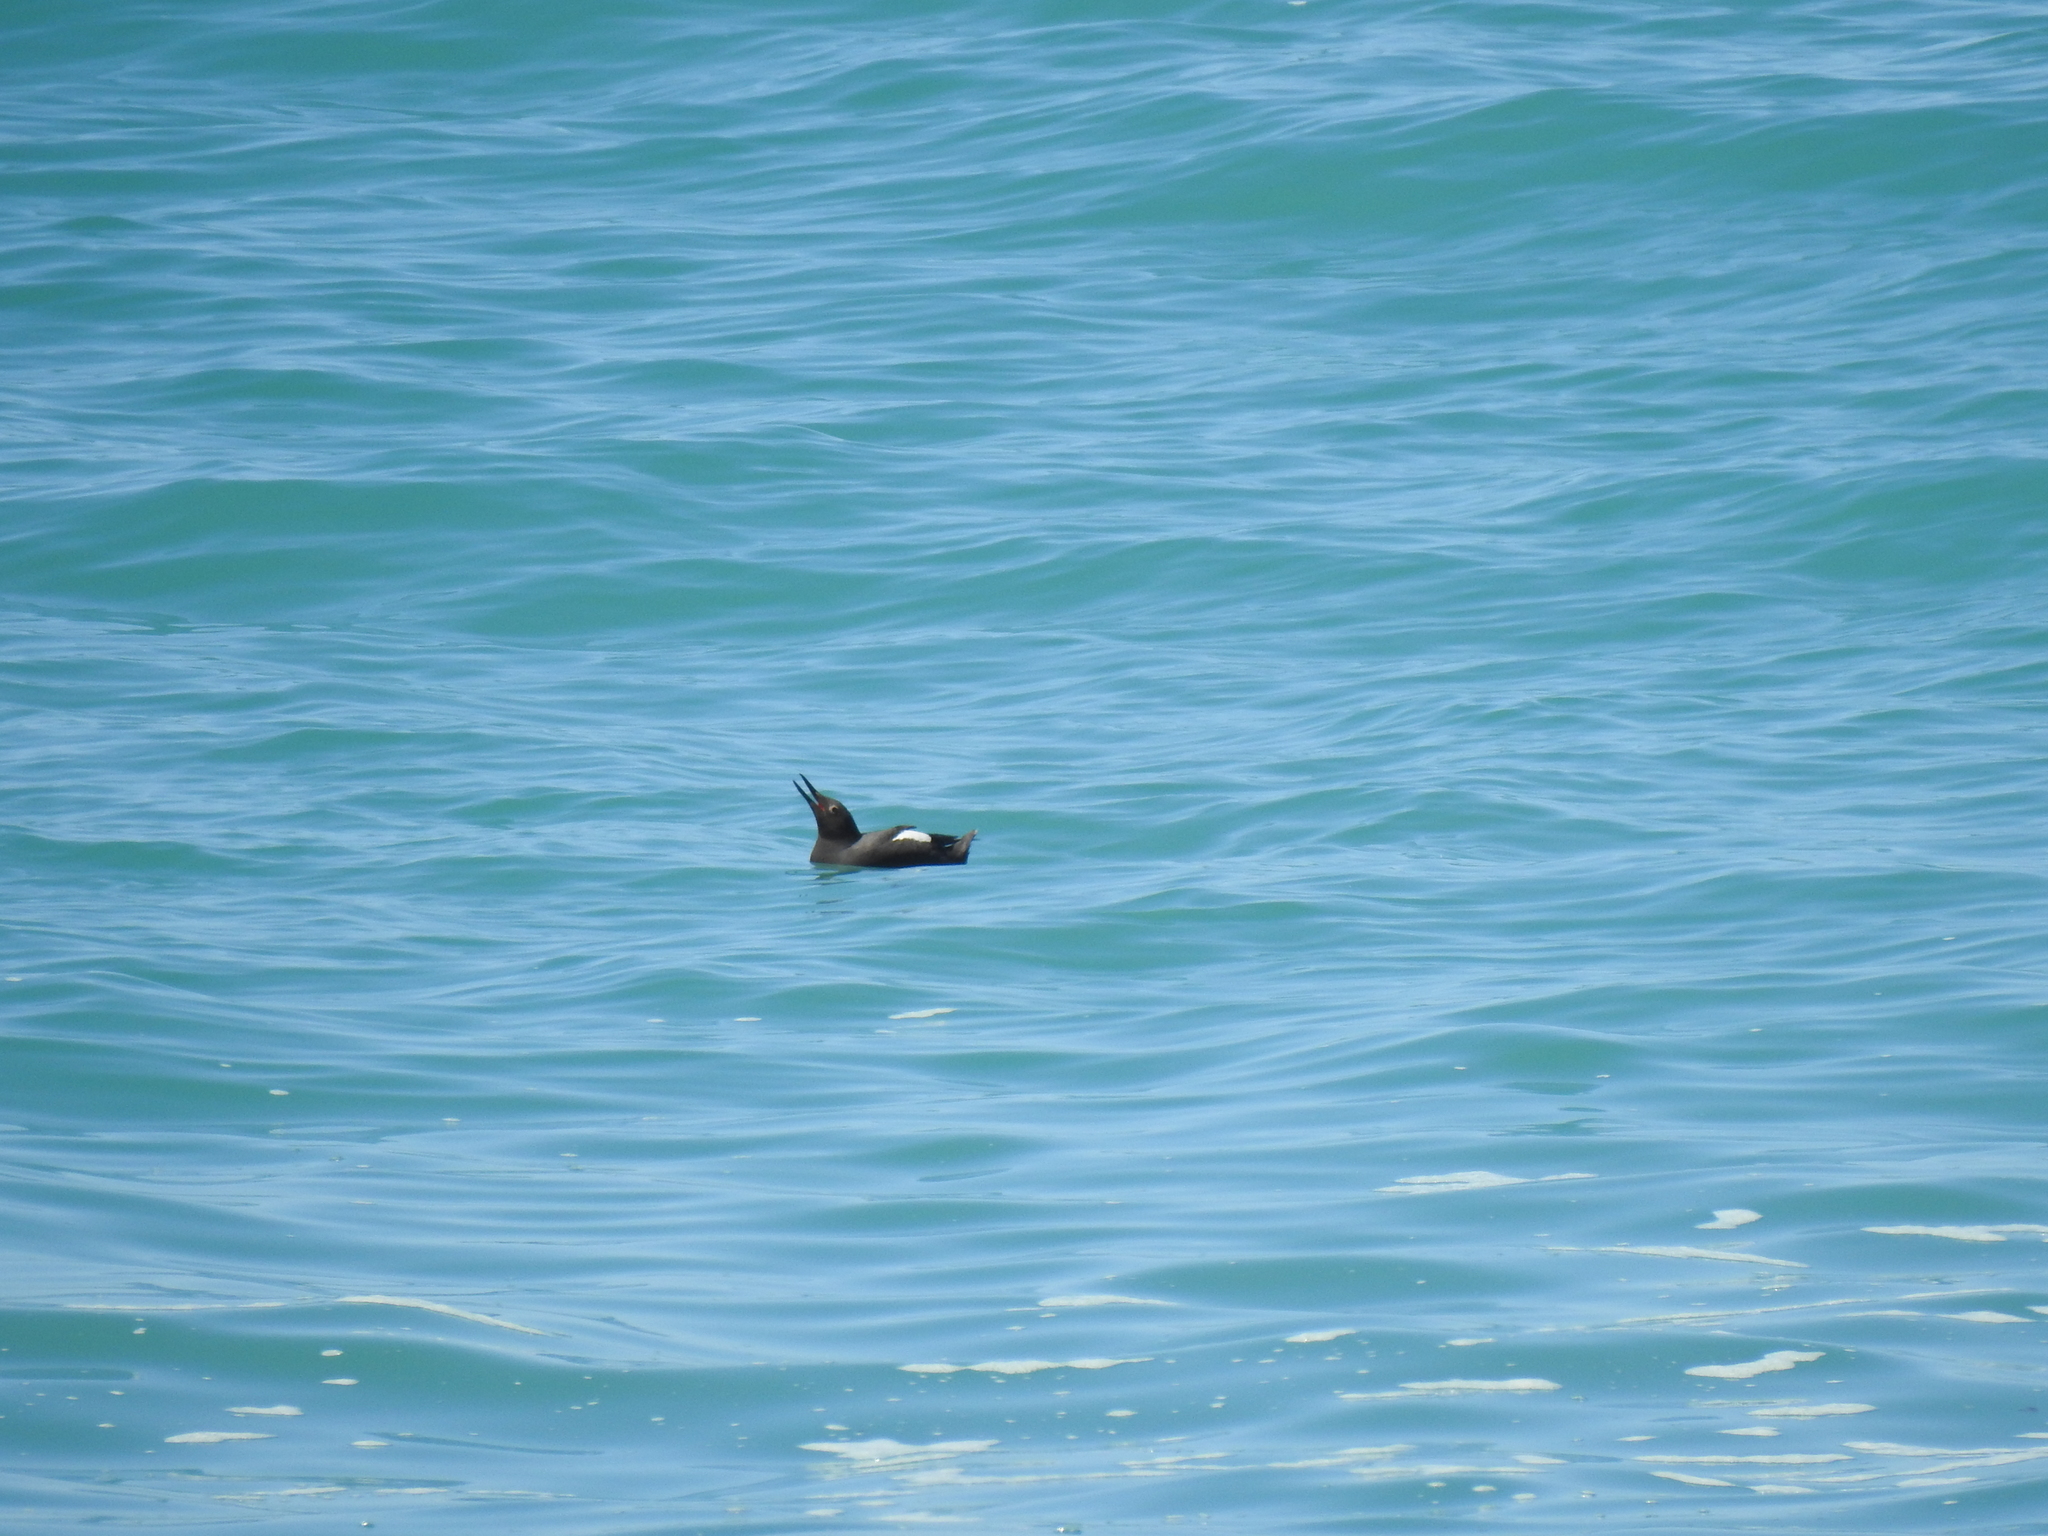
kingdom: Animalia
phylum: Chordata
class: Aves
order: Charadriiformes
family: Alcidae
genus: Cepphus
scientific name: Cepphus columba
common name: Pigeon guillemot
